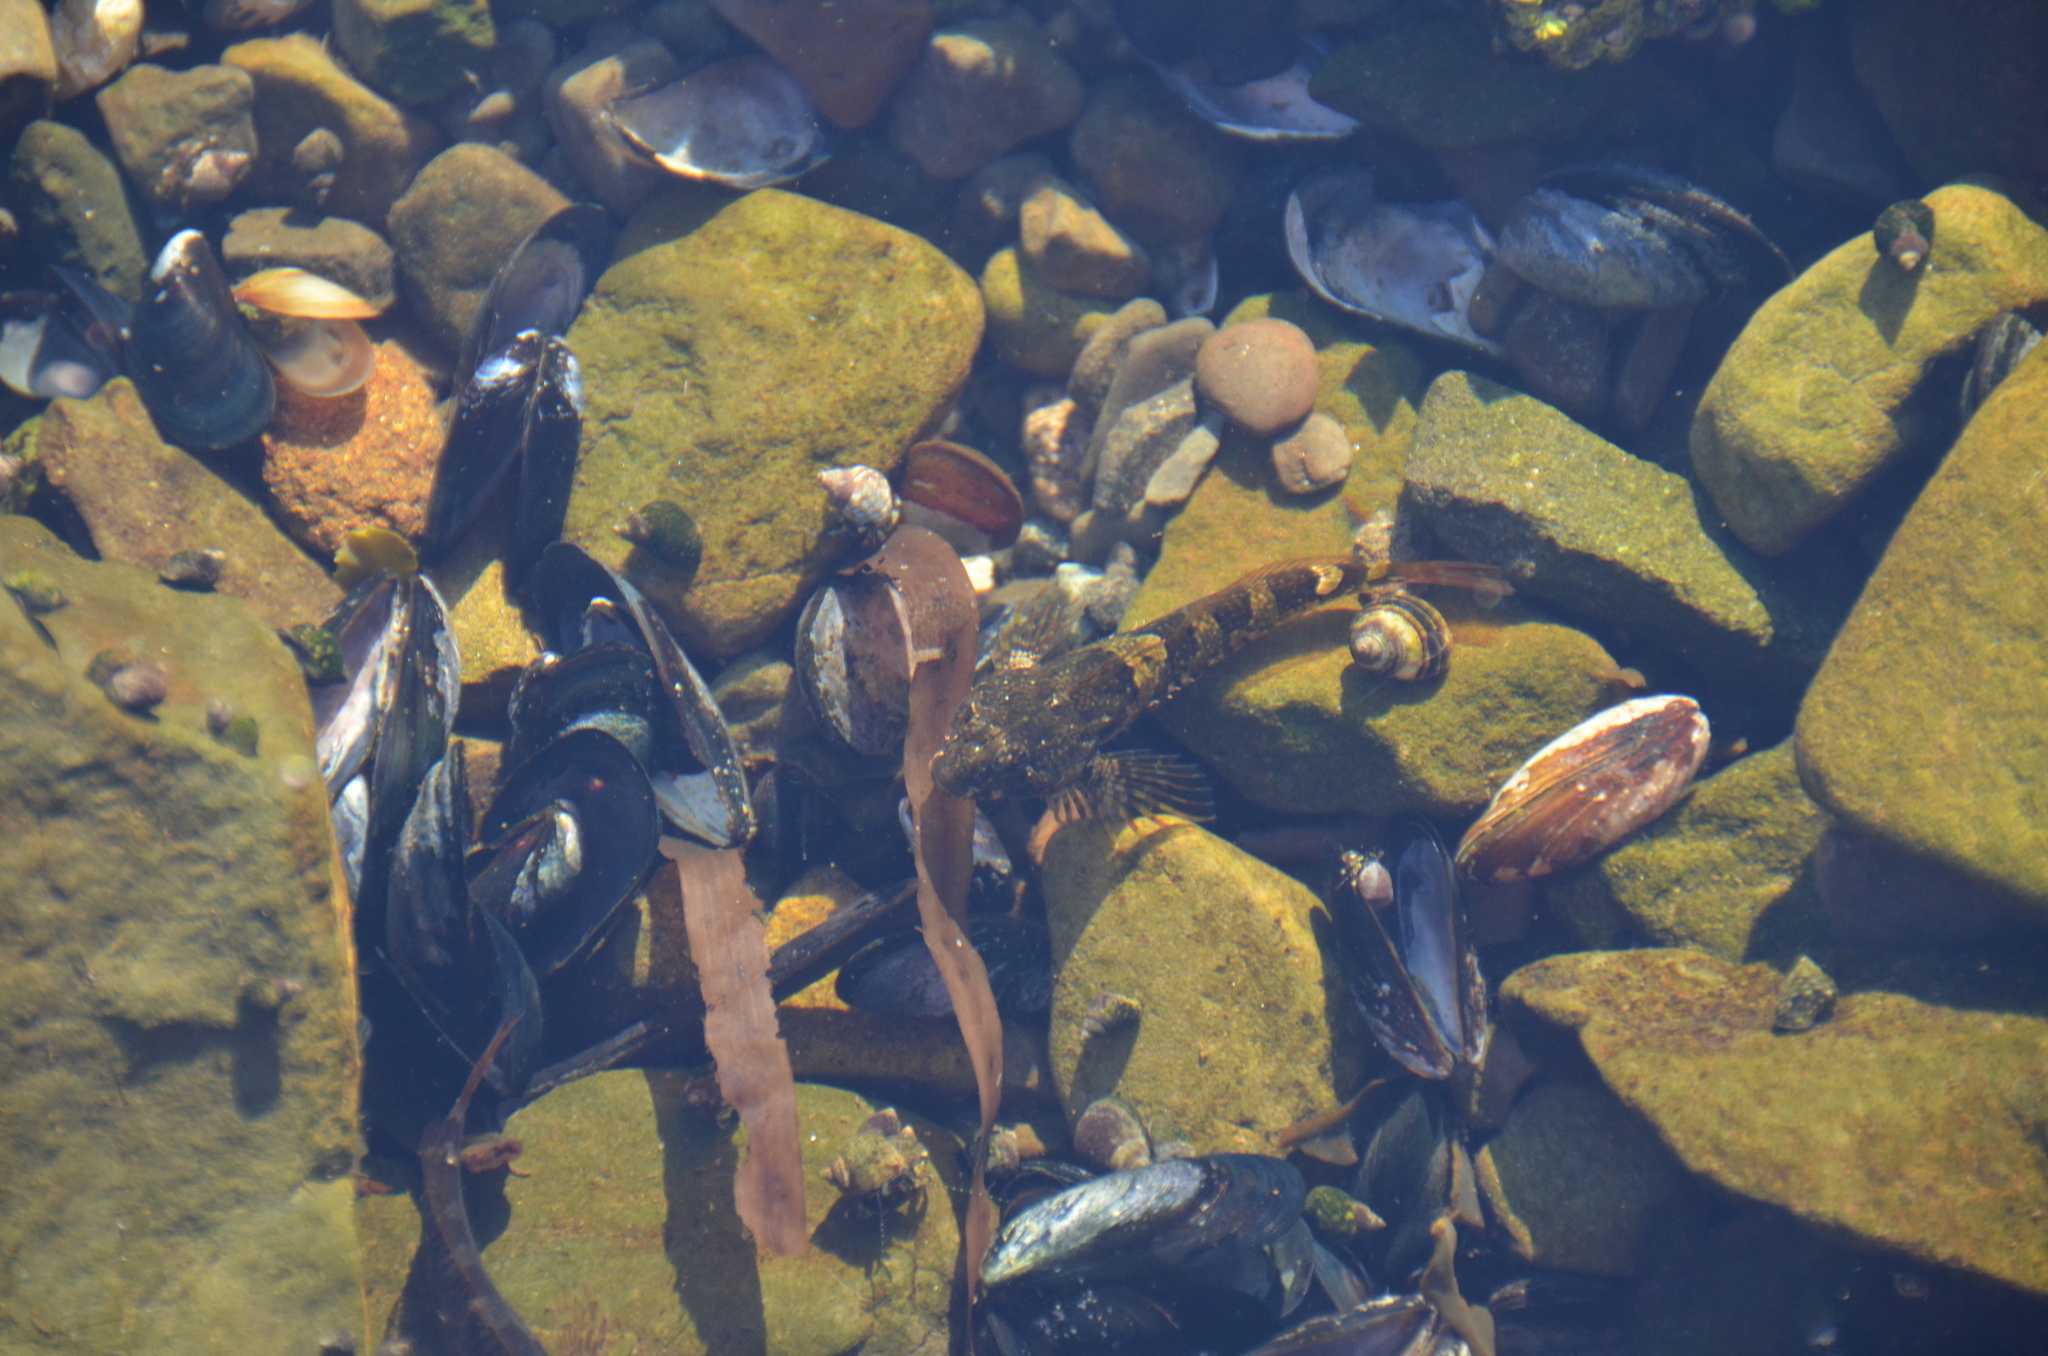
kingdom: Animalia
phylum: Chordata
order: Scorpaeniformes
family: Cottidae
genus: Oligocottus
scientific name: Oligocottus maculosus
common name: Tidepool sculpin
